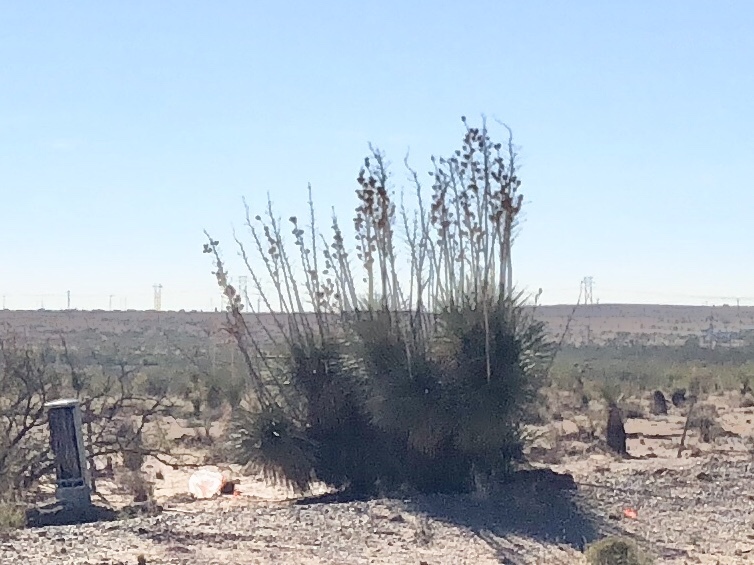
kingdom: Plantae
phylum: Tracheophyta
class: Liliopsida
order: Asparagales
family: Asparagaceae
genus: Yucca
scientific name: Yucca elata
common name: Palmella
